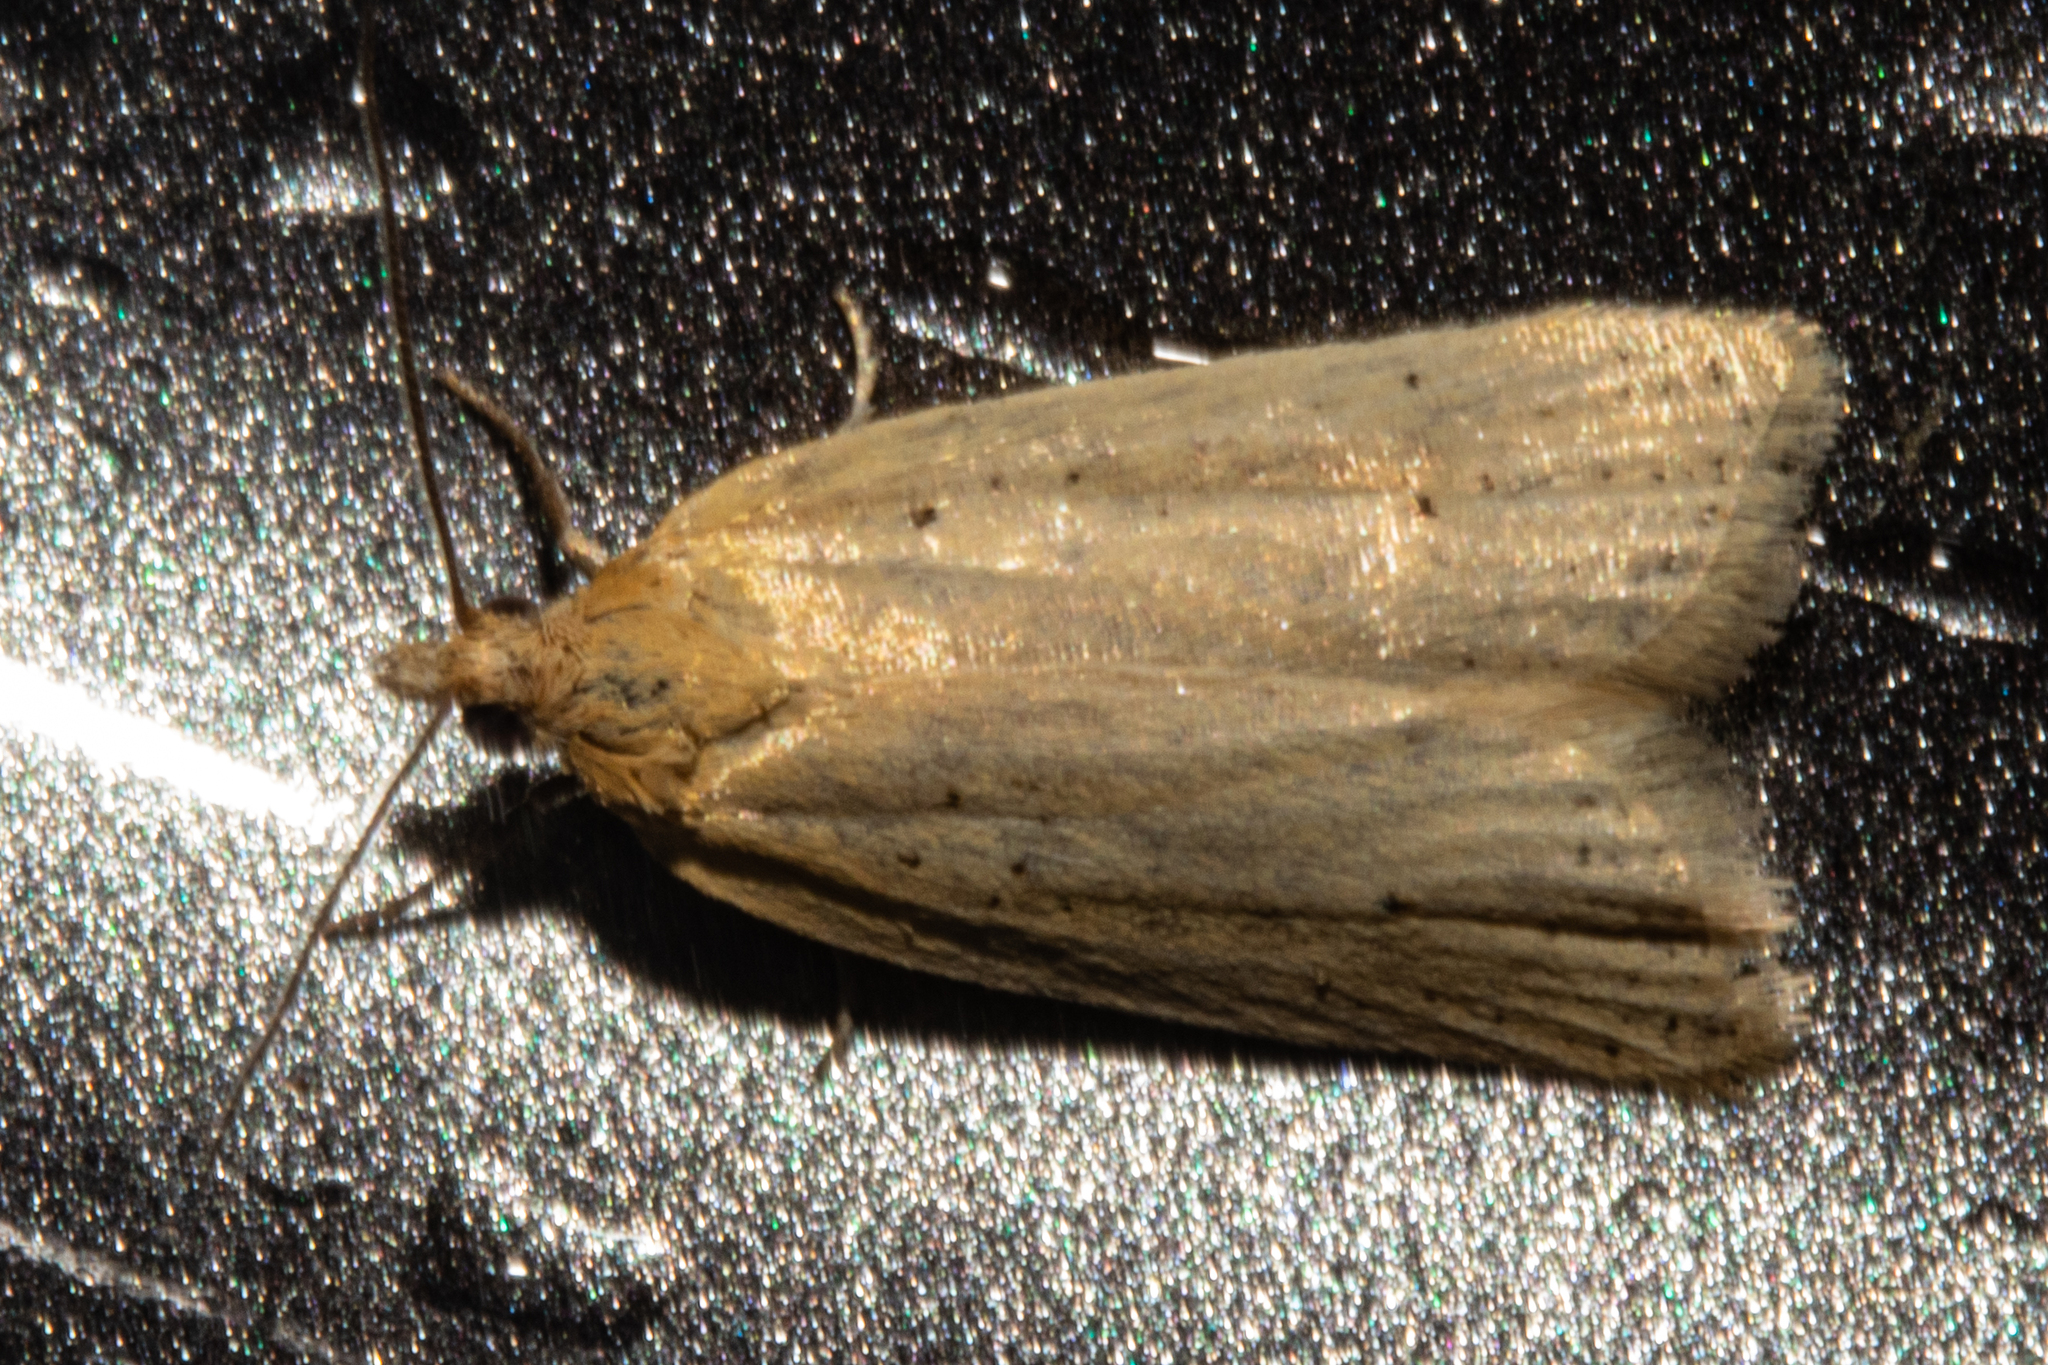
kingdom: Animalia
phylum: Arthropoda
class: Insecta
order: Lepidoptera
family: Tortricidae
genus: Clepsis
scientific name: Clepsis
